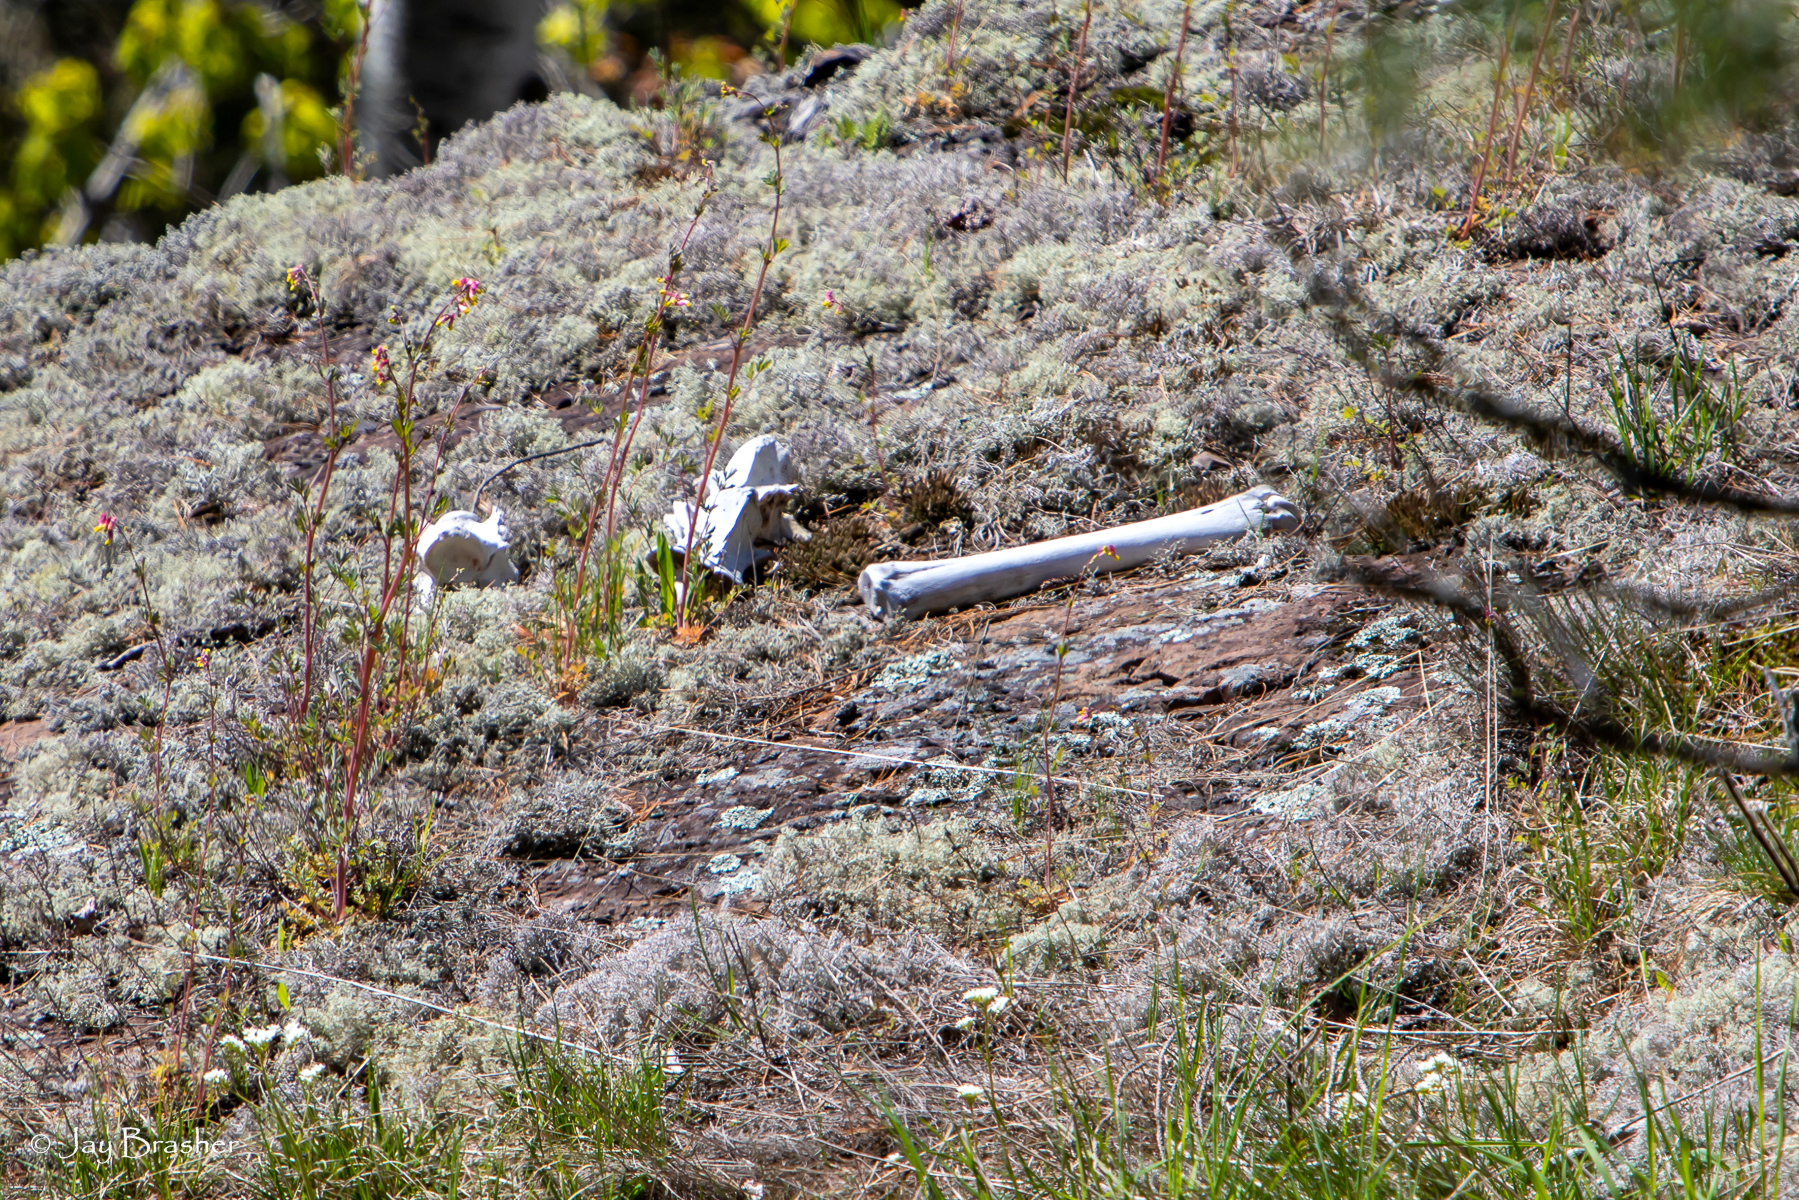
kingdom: Animalia
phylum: Chordata
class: Mammalia
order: Artiodactyla
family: Cervidae
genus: Alces
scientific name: Alces americanus
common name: Moose
